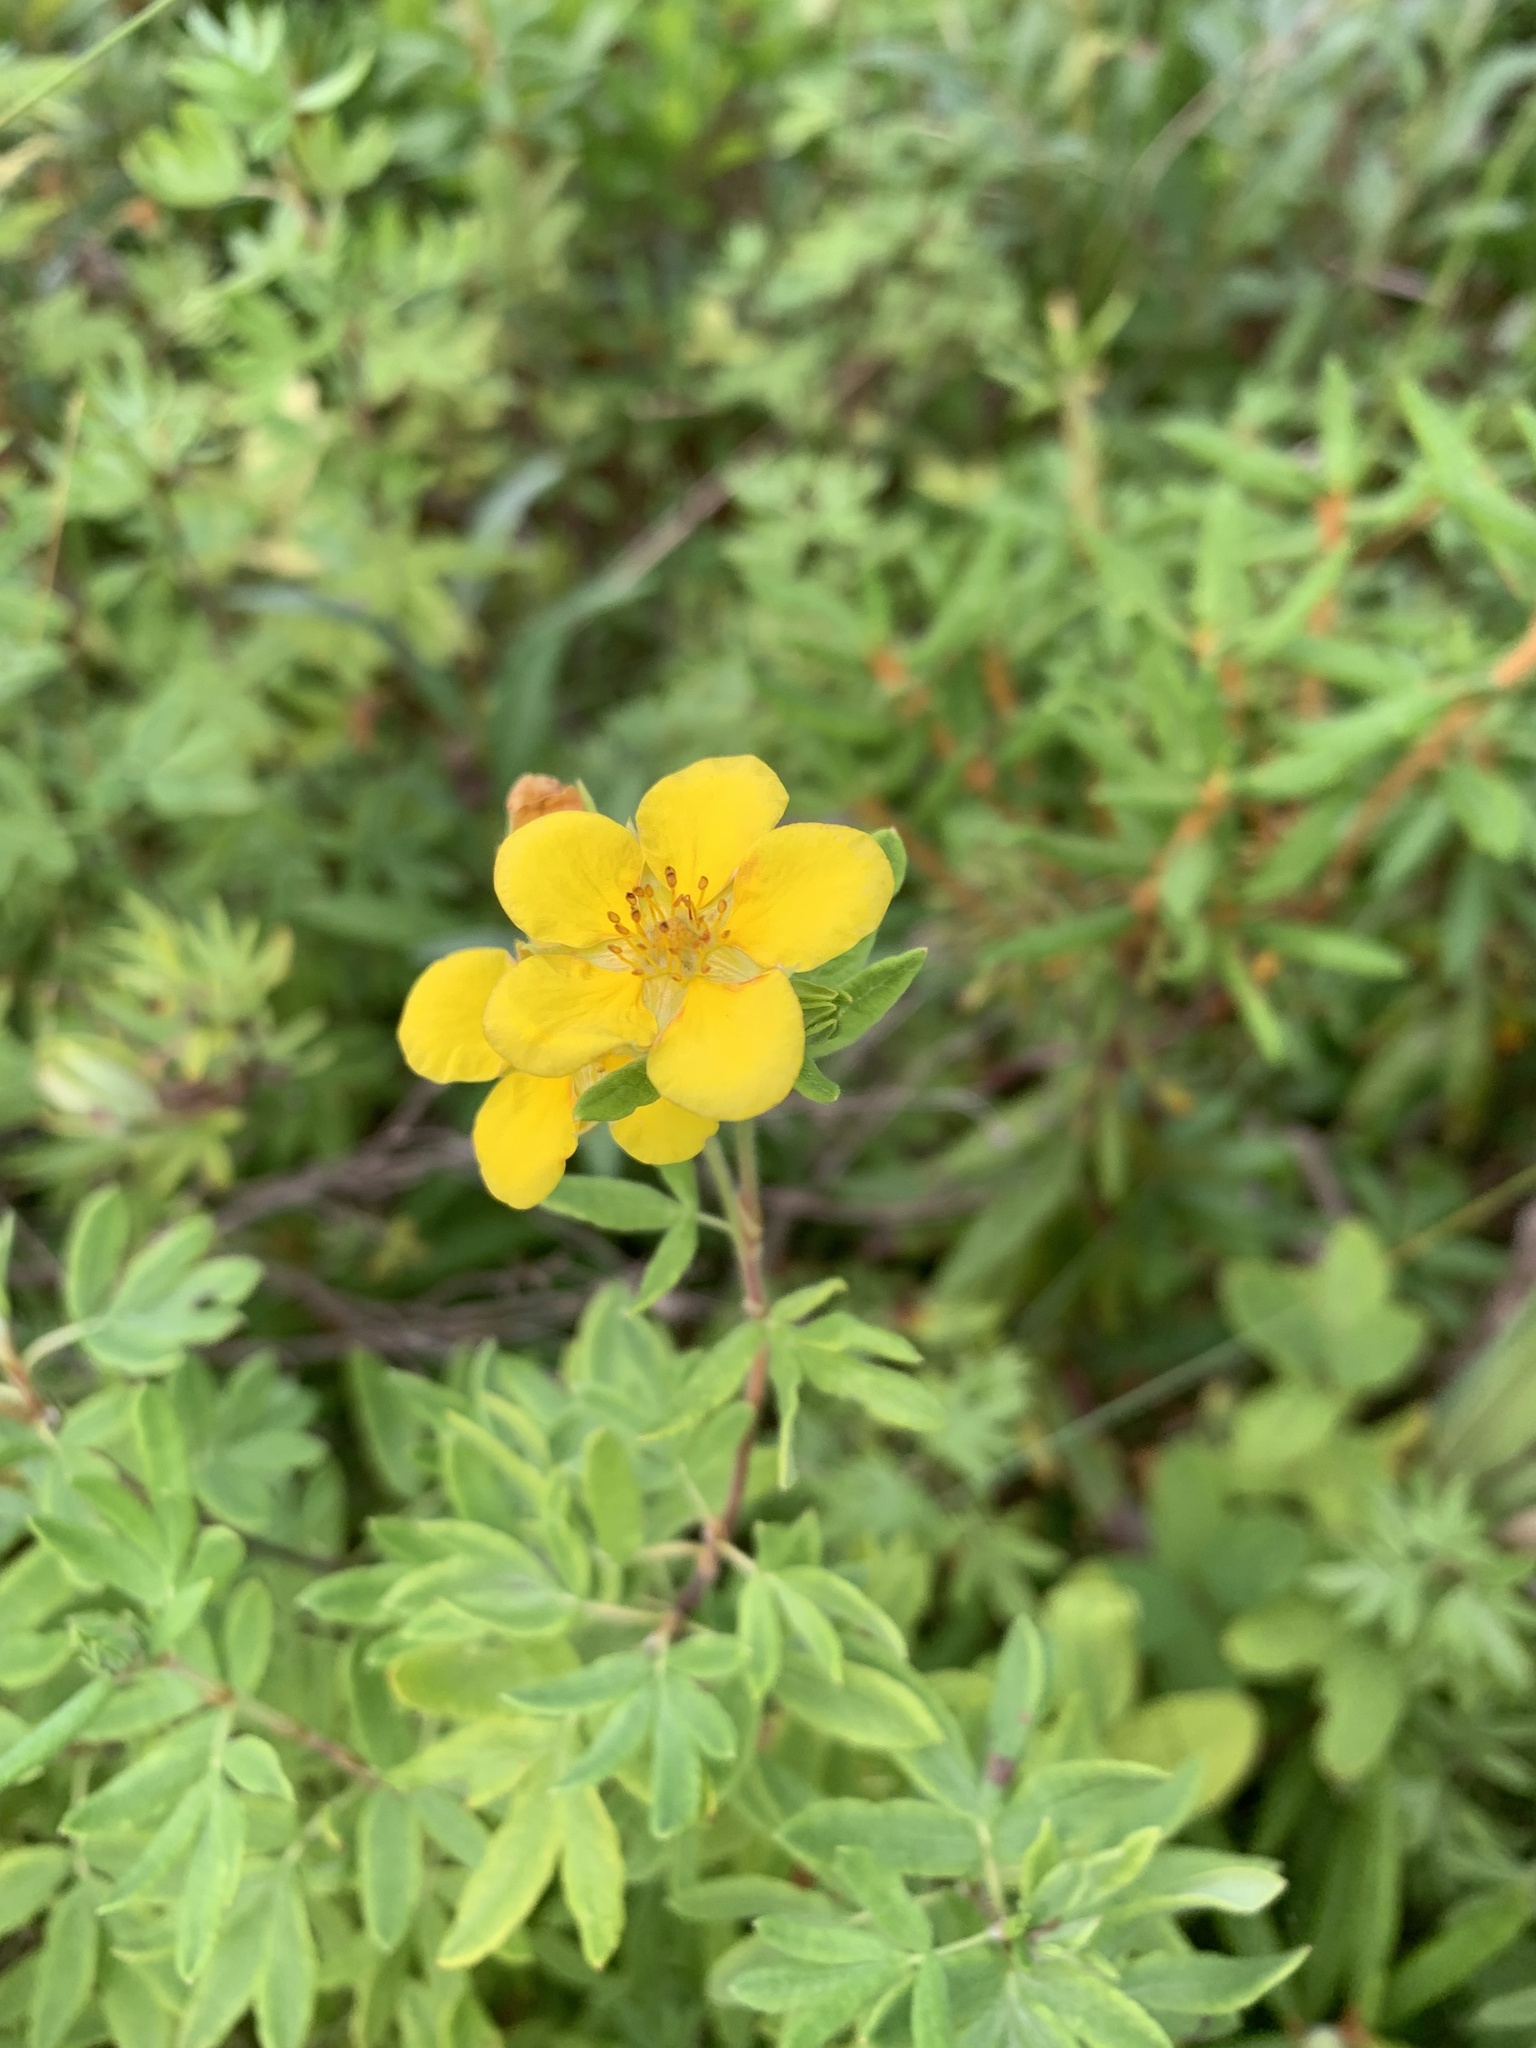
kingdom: Plantae
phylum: Tracheophyta
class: Magnoliopsida
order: Rosales
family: Rosaceae
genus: Dasiphora
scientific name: Dasiphora fruticosa
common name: Shrubby cinquefoil
